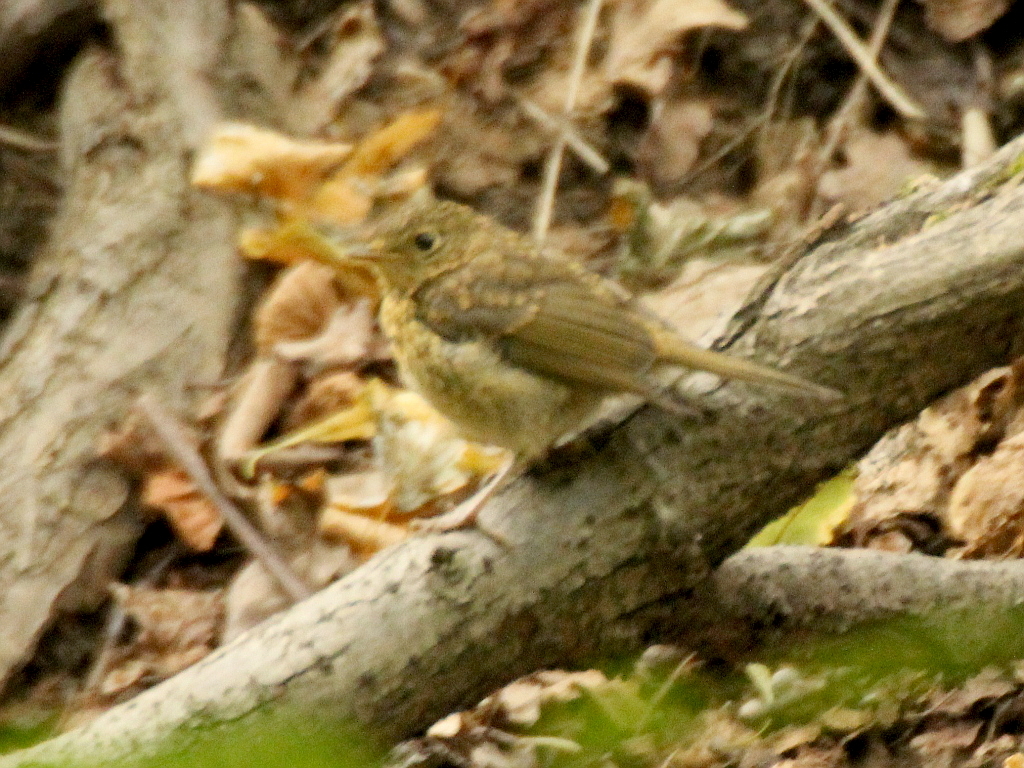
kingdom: Animalia
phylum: Chordata
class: Aves
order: Passeriformes
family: Muscicapidae
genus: Erithacus
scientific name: Erithacus rubecula
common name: European robin
